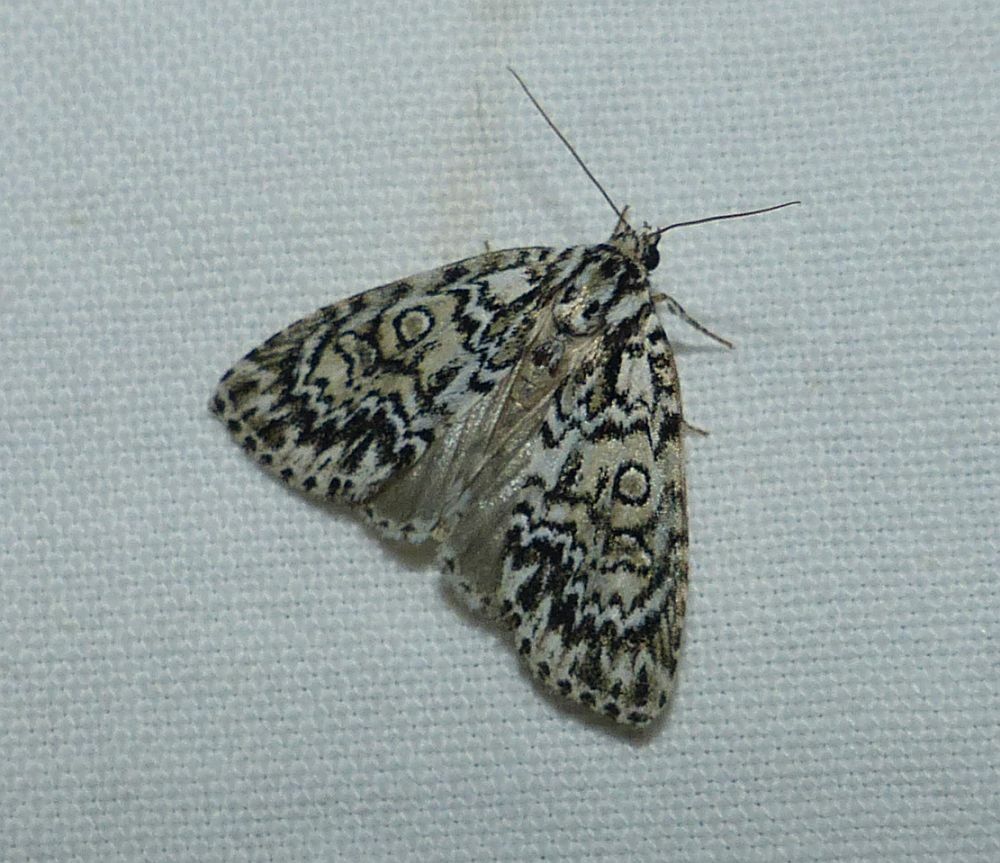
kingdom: Animalia
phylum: Arthropoda
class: Insecta
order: Lepidoptera
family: Noctuidae
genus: Acronicta
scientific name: Acronicta heitzmani
